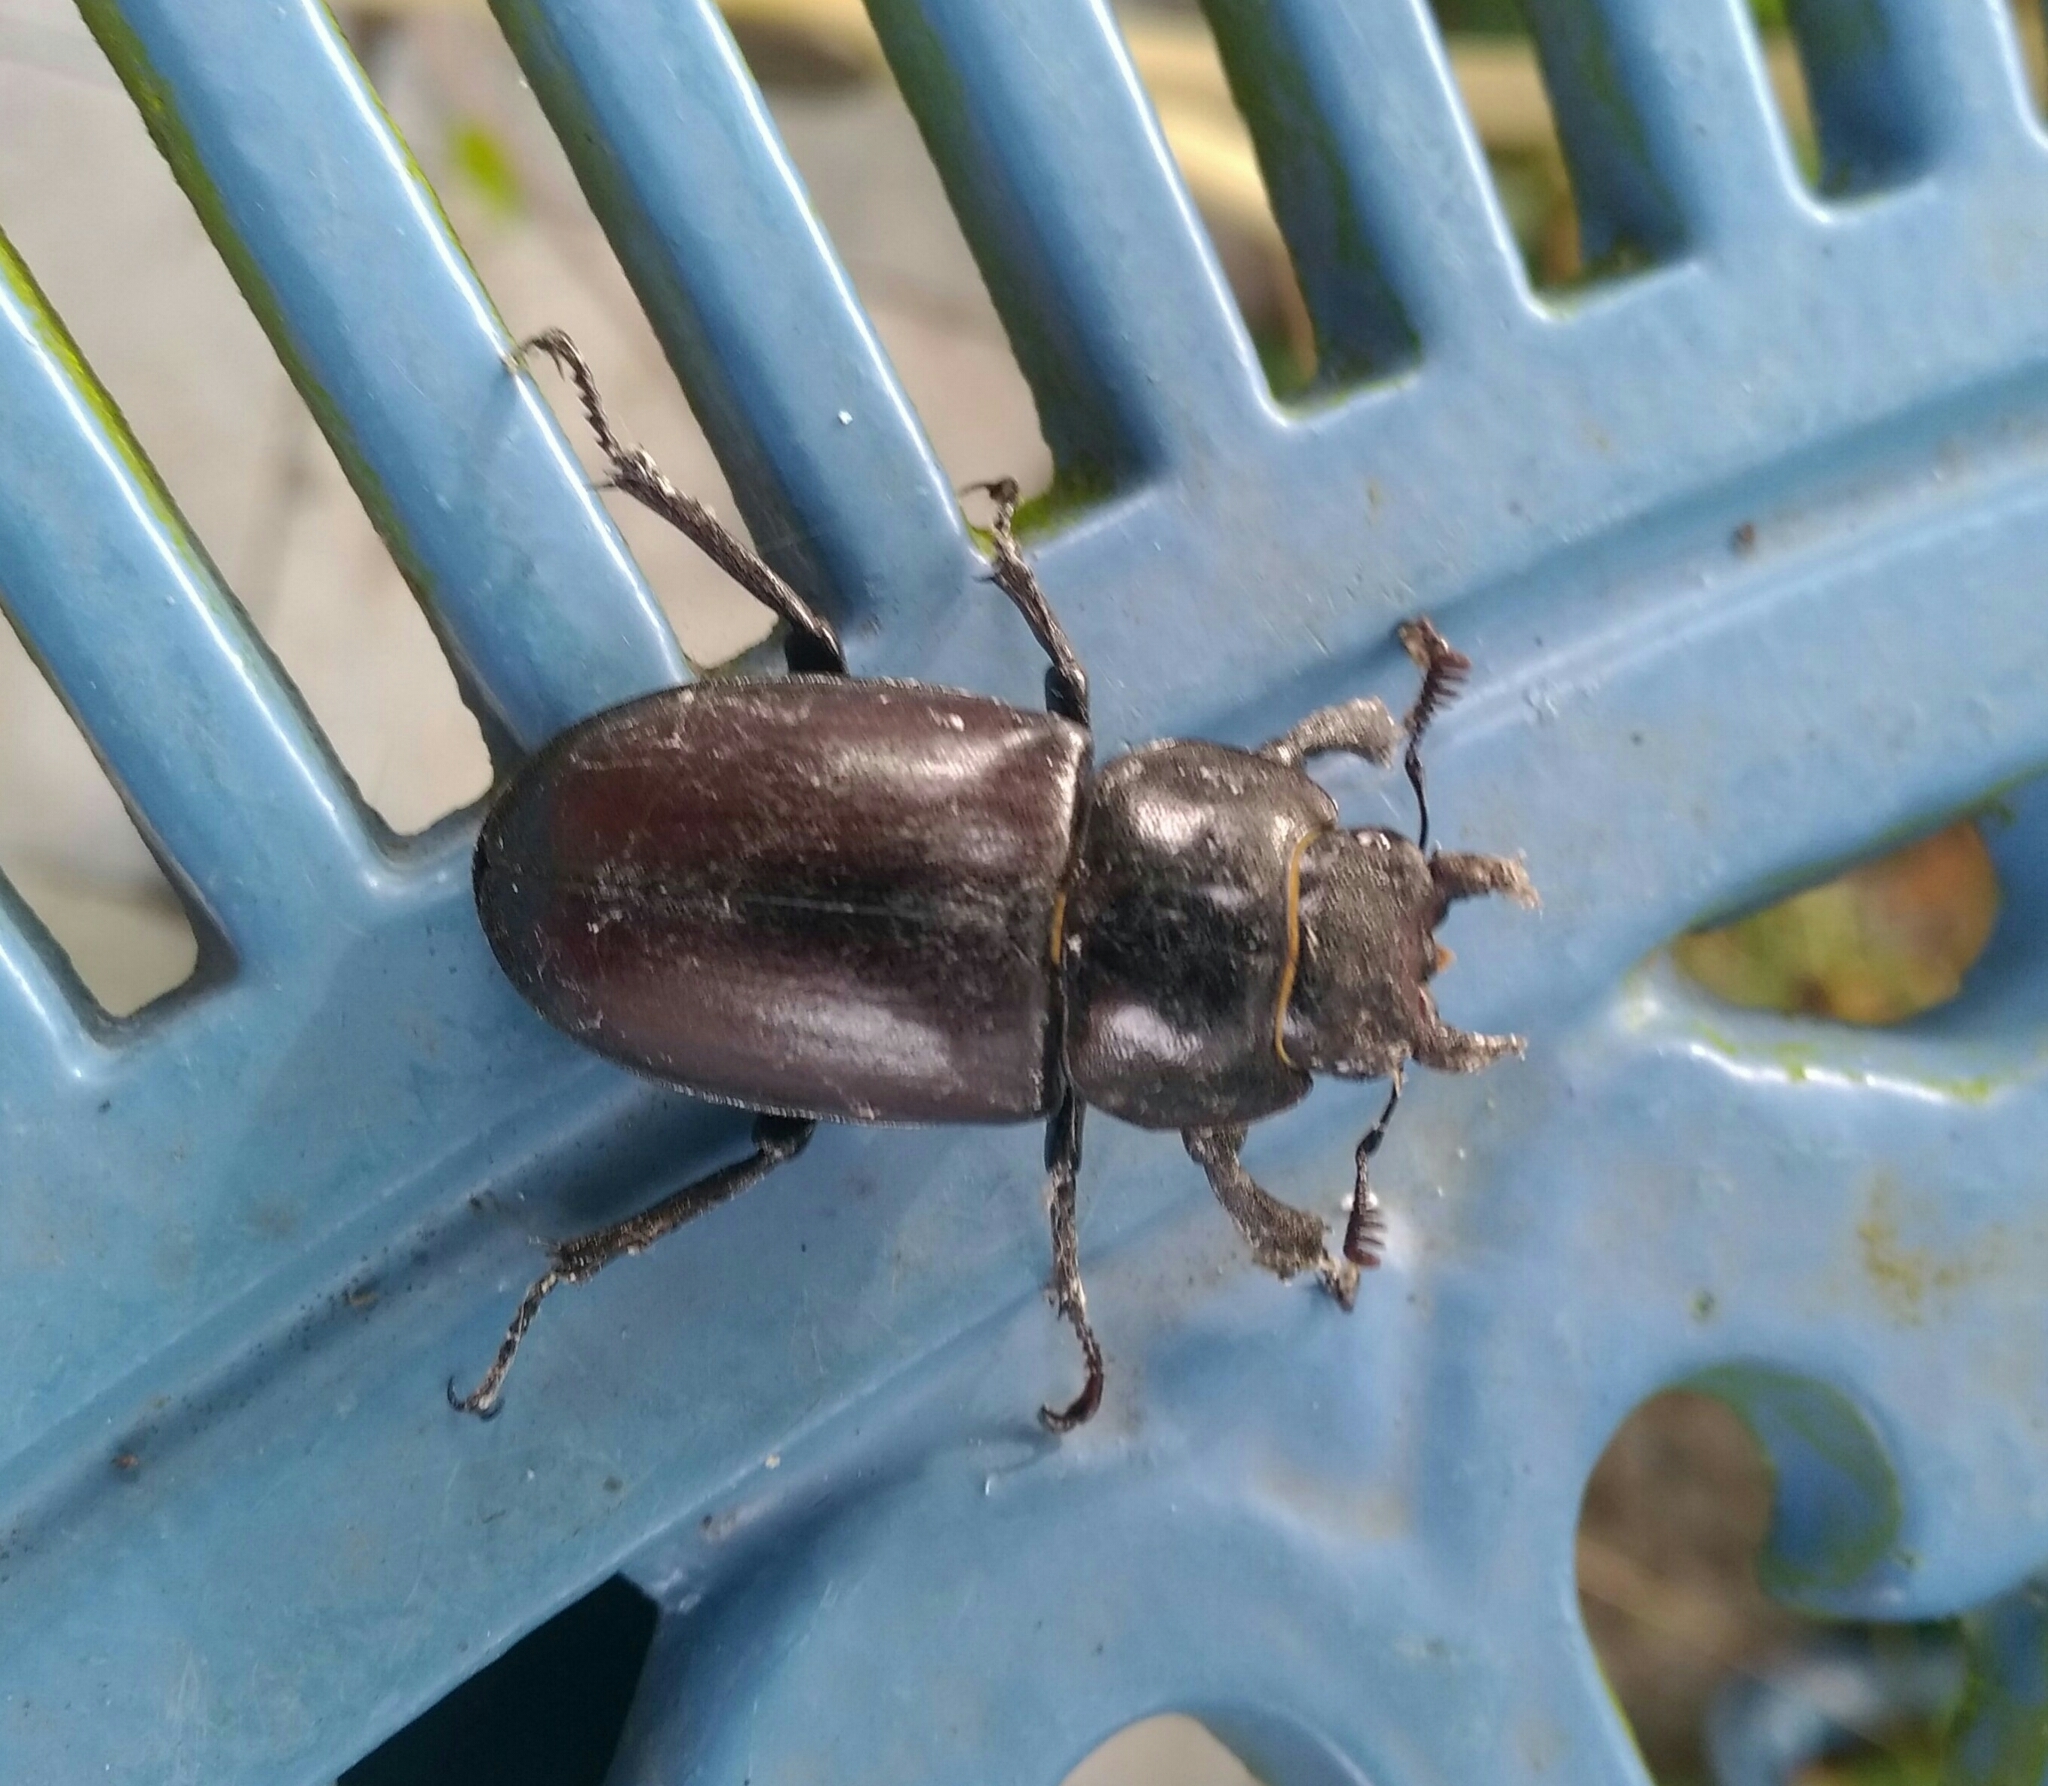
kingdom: Animalia
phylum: Arthropoda
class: Insecta
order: Coleoptera
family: Lucanidae
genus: Lucanus
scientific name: Lucanus cervus
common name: Stag beetle
